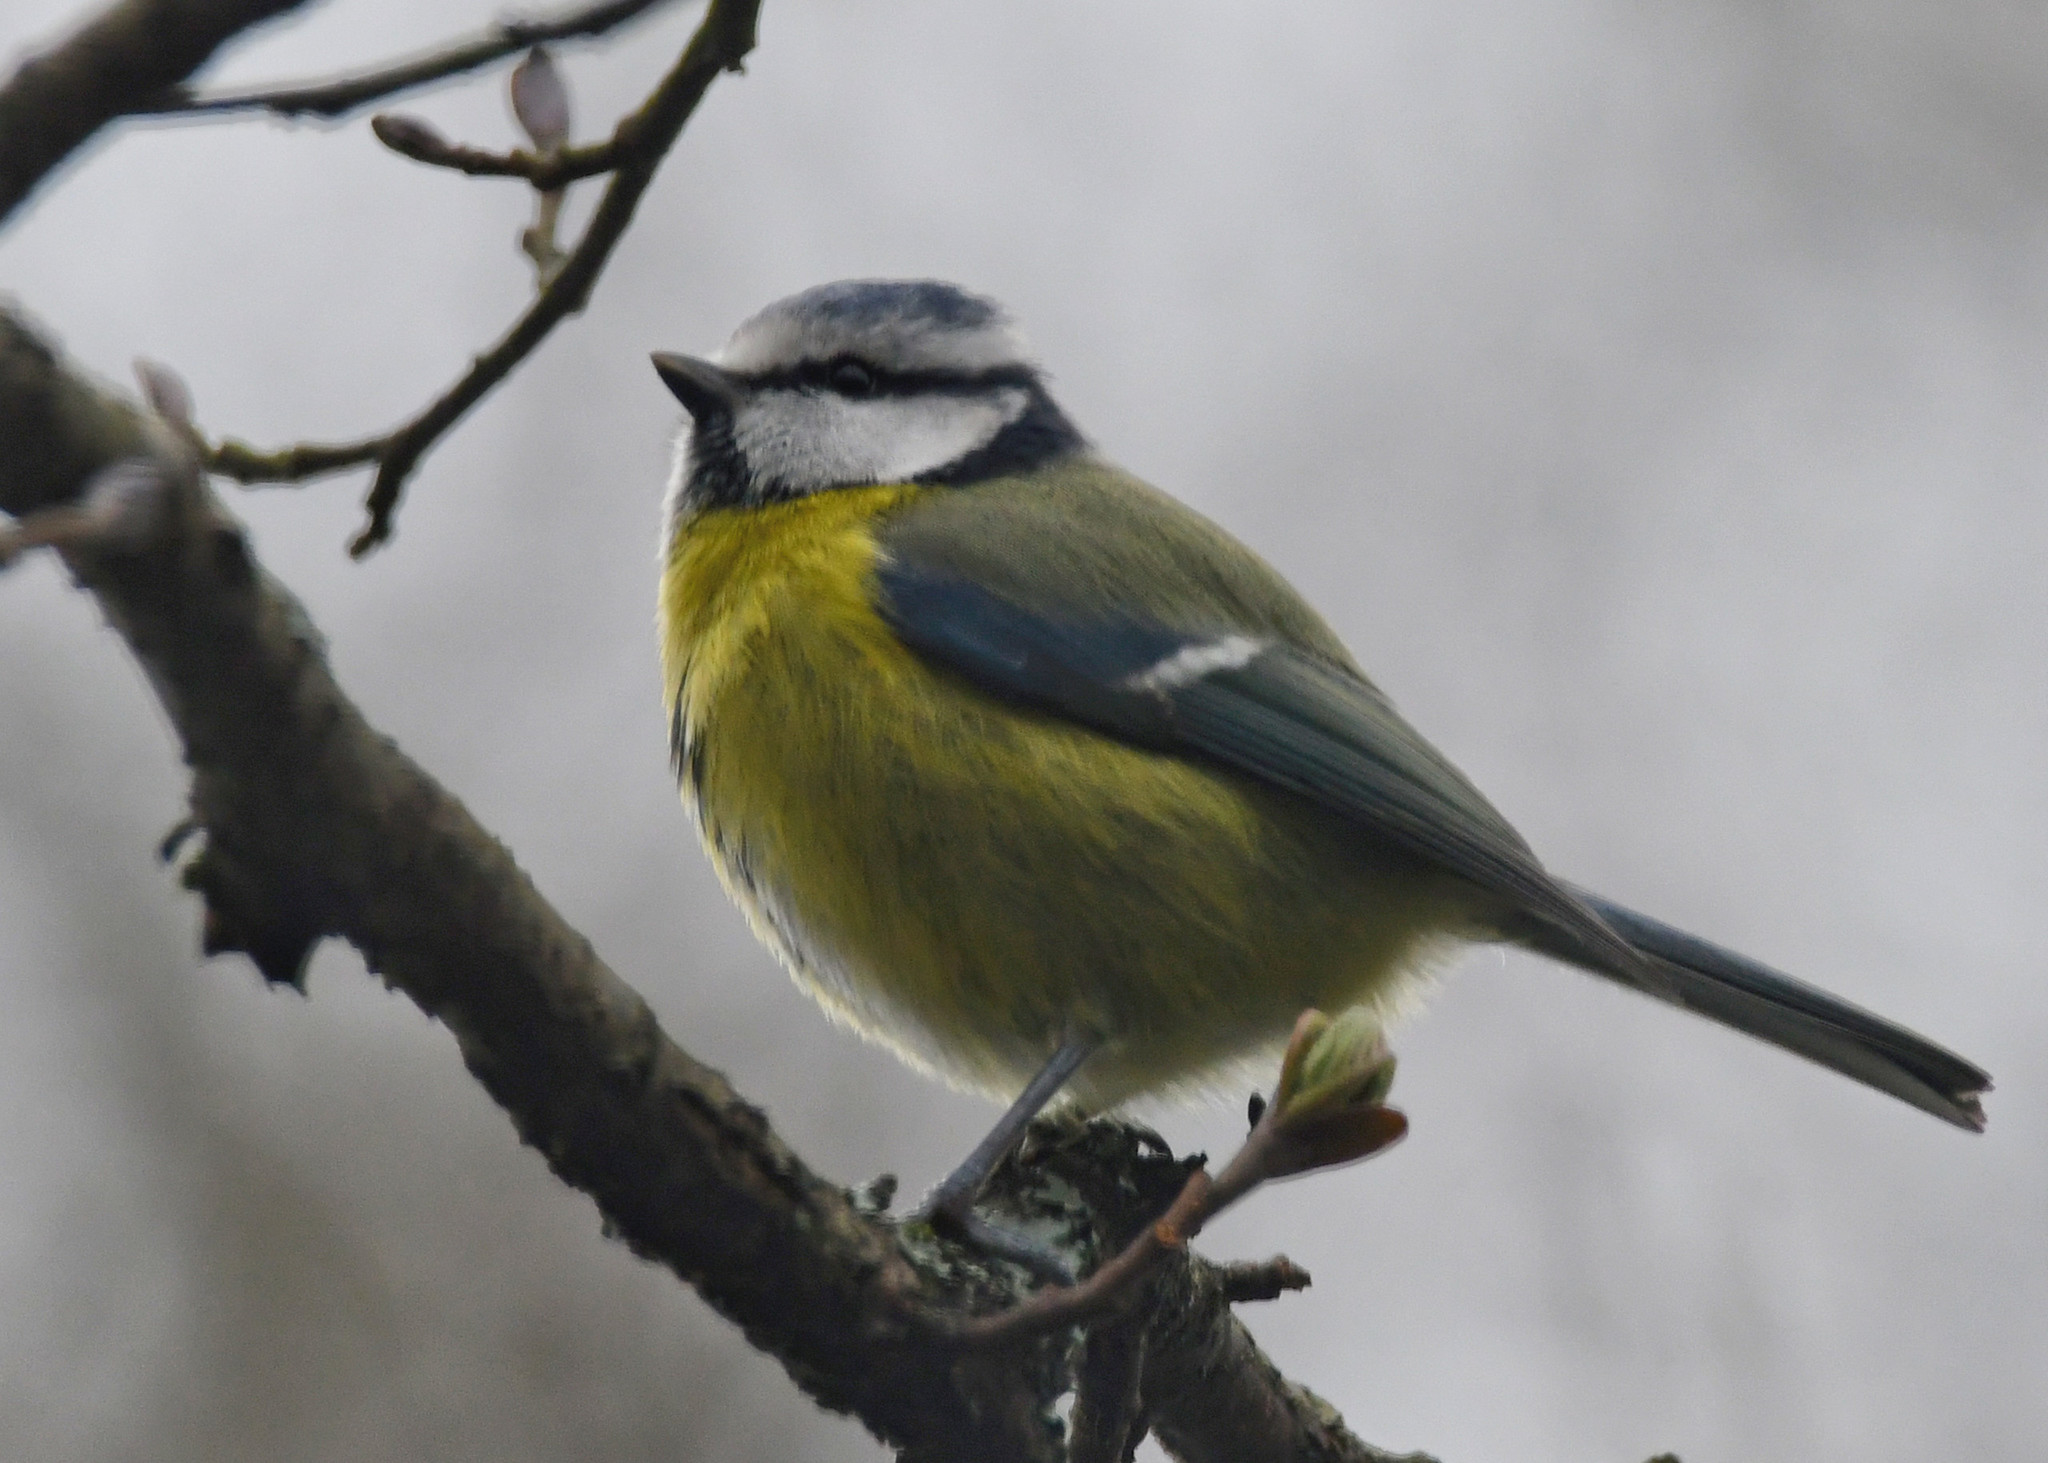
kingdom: Animalia
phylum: Chordata
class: Aves
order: Passeriformes
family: Paridae
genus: Cyanistes
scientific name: Cyanistes caeruleus
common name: Eurasian blue tit
